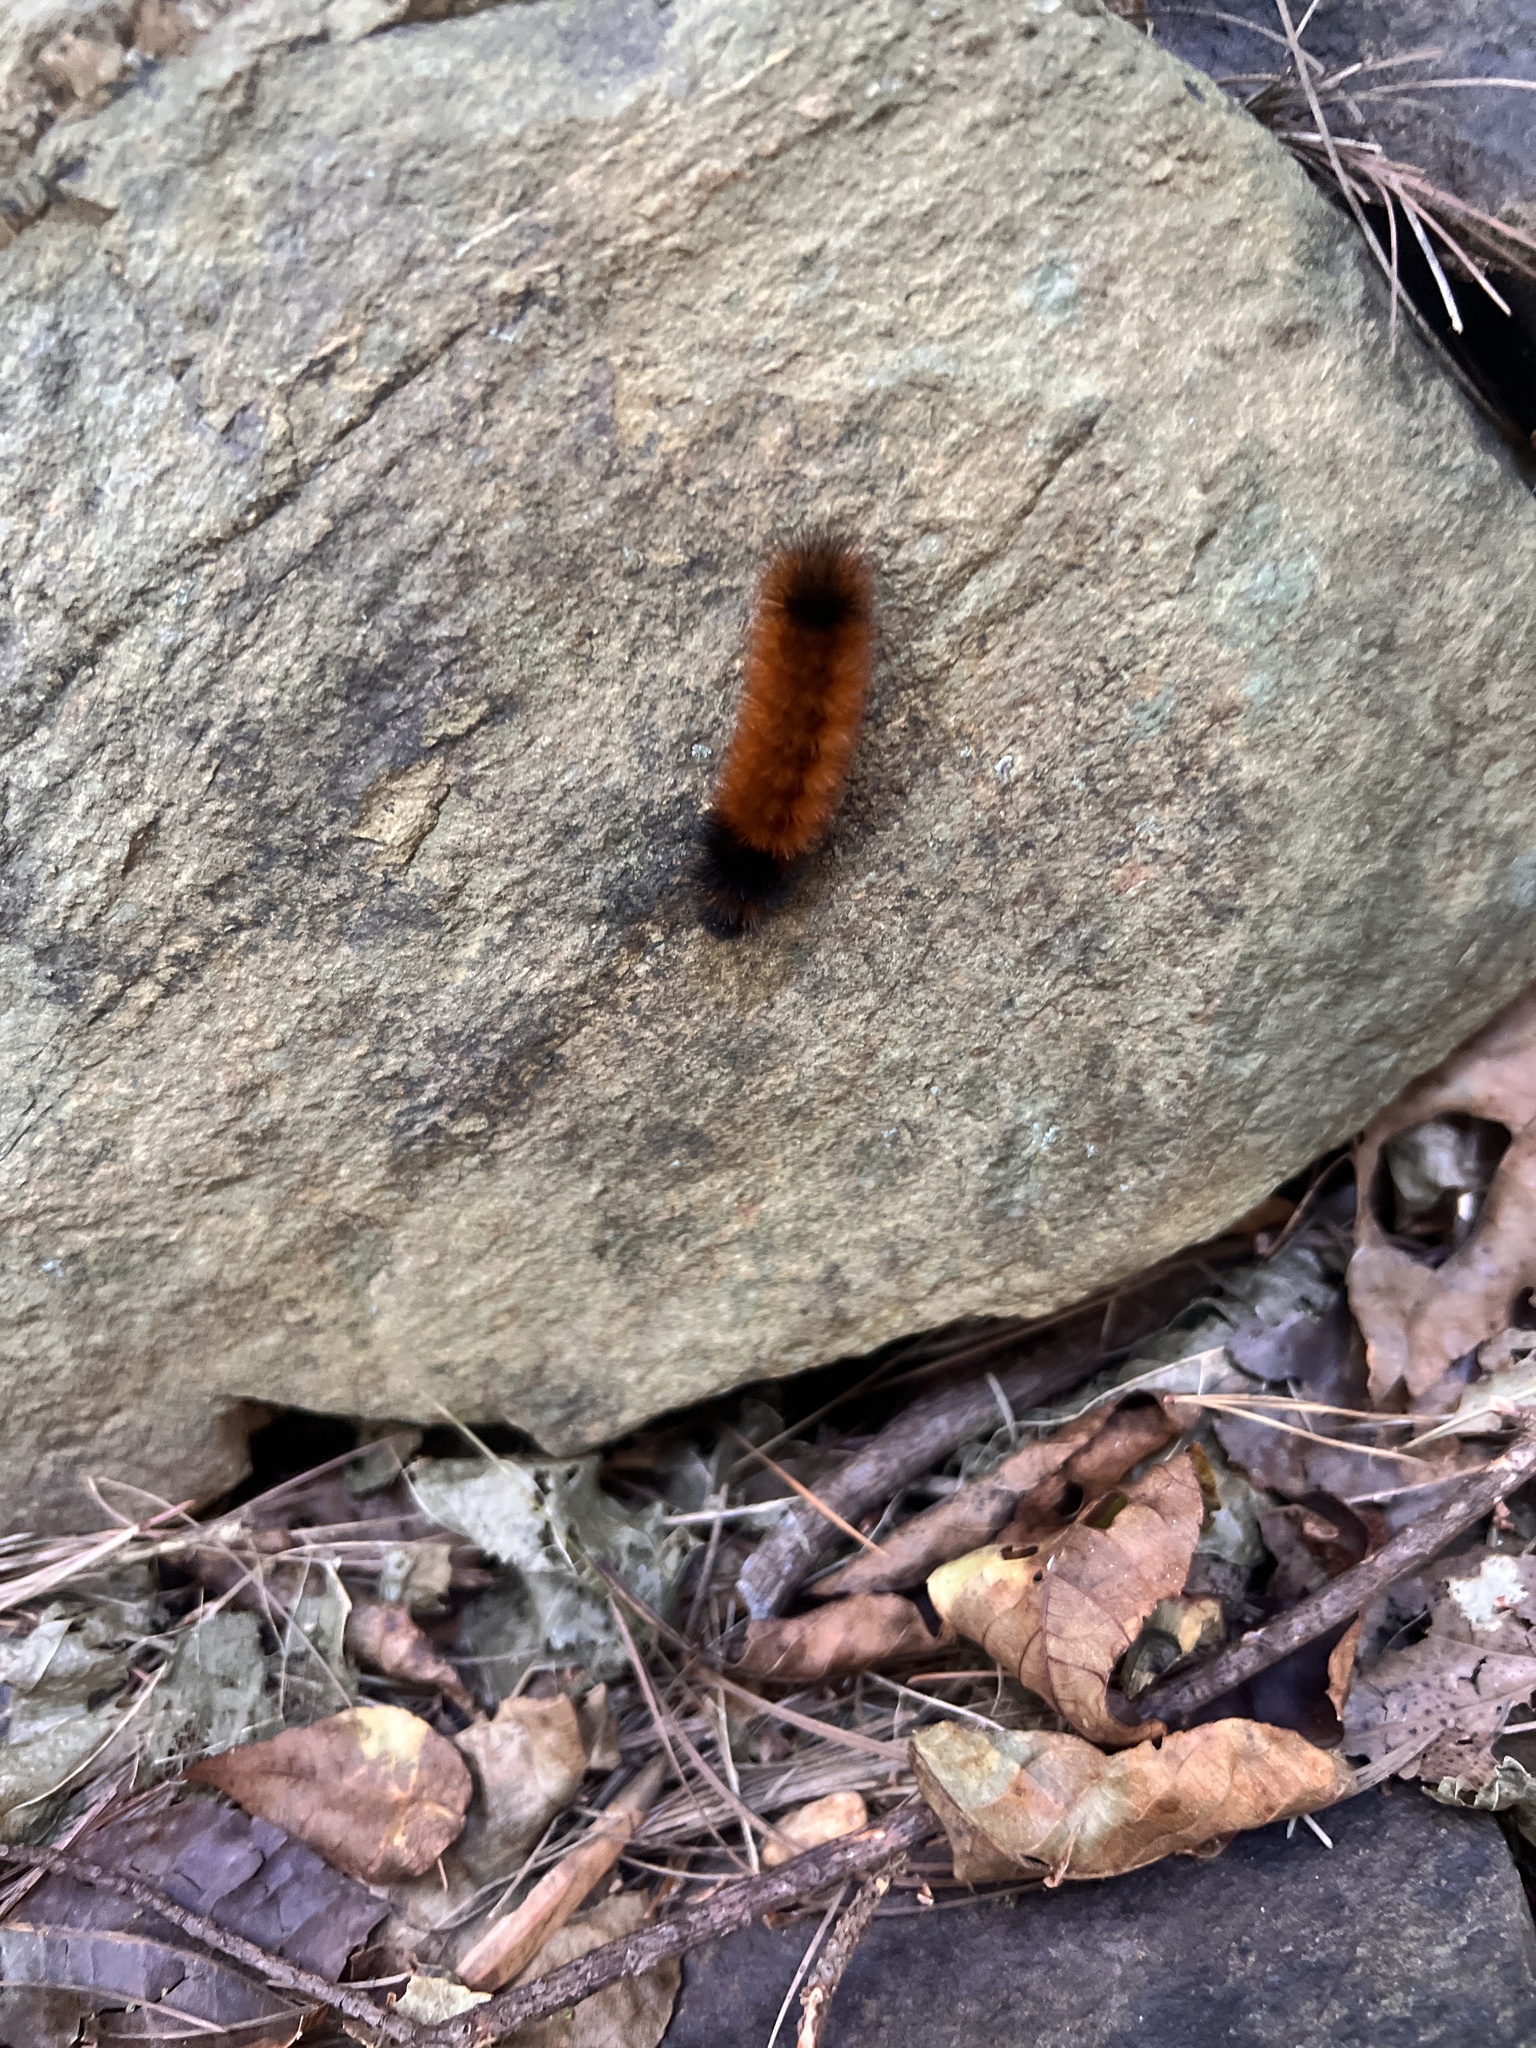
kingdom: Animalia
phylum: Arthropoda
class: Insecta
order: Lepidoptera
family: Erebidae
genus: Pyrrharctia
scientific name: Pyrrharctia isabella
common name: Isabella tiger moth
